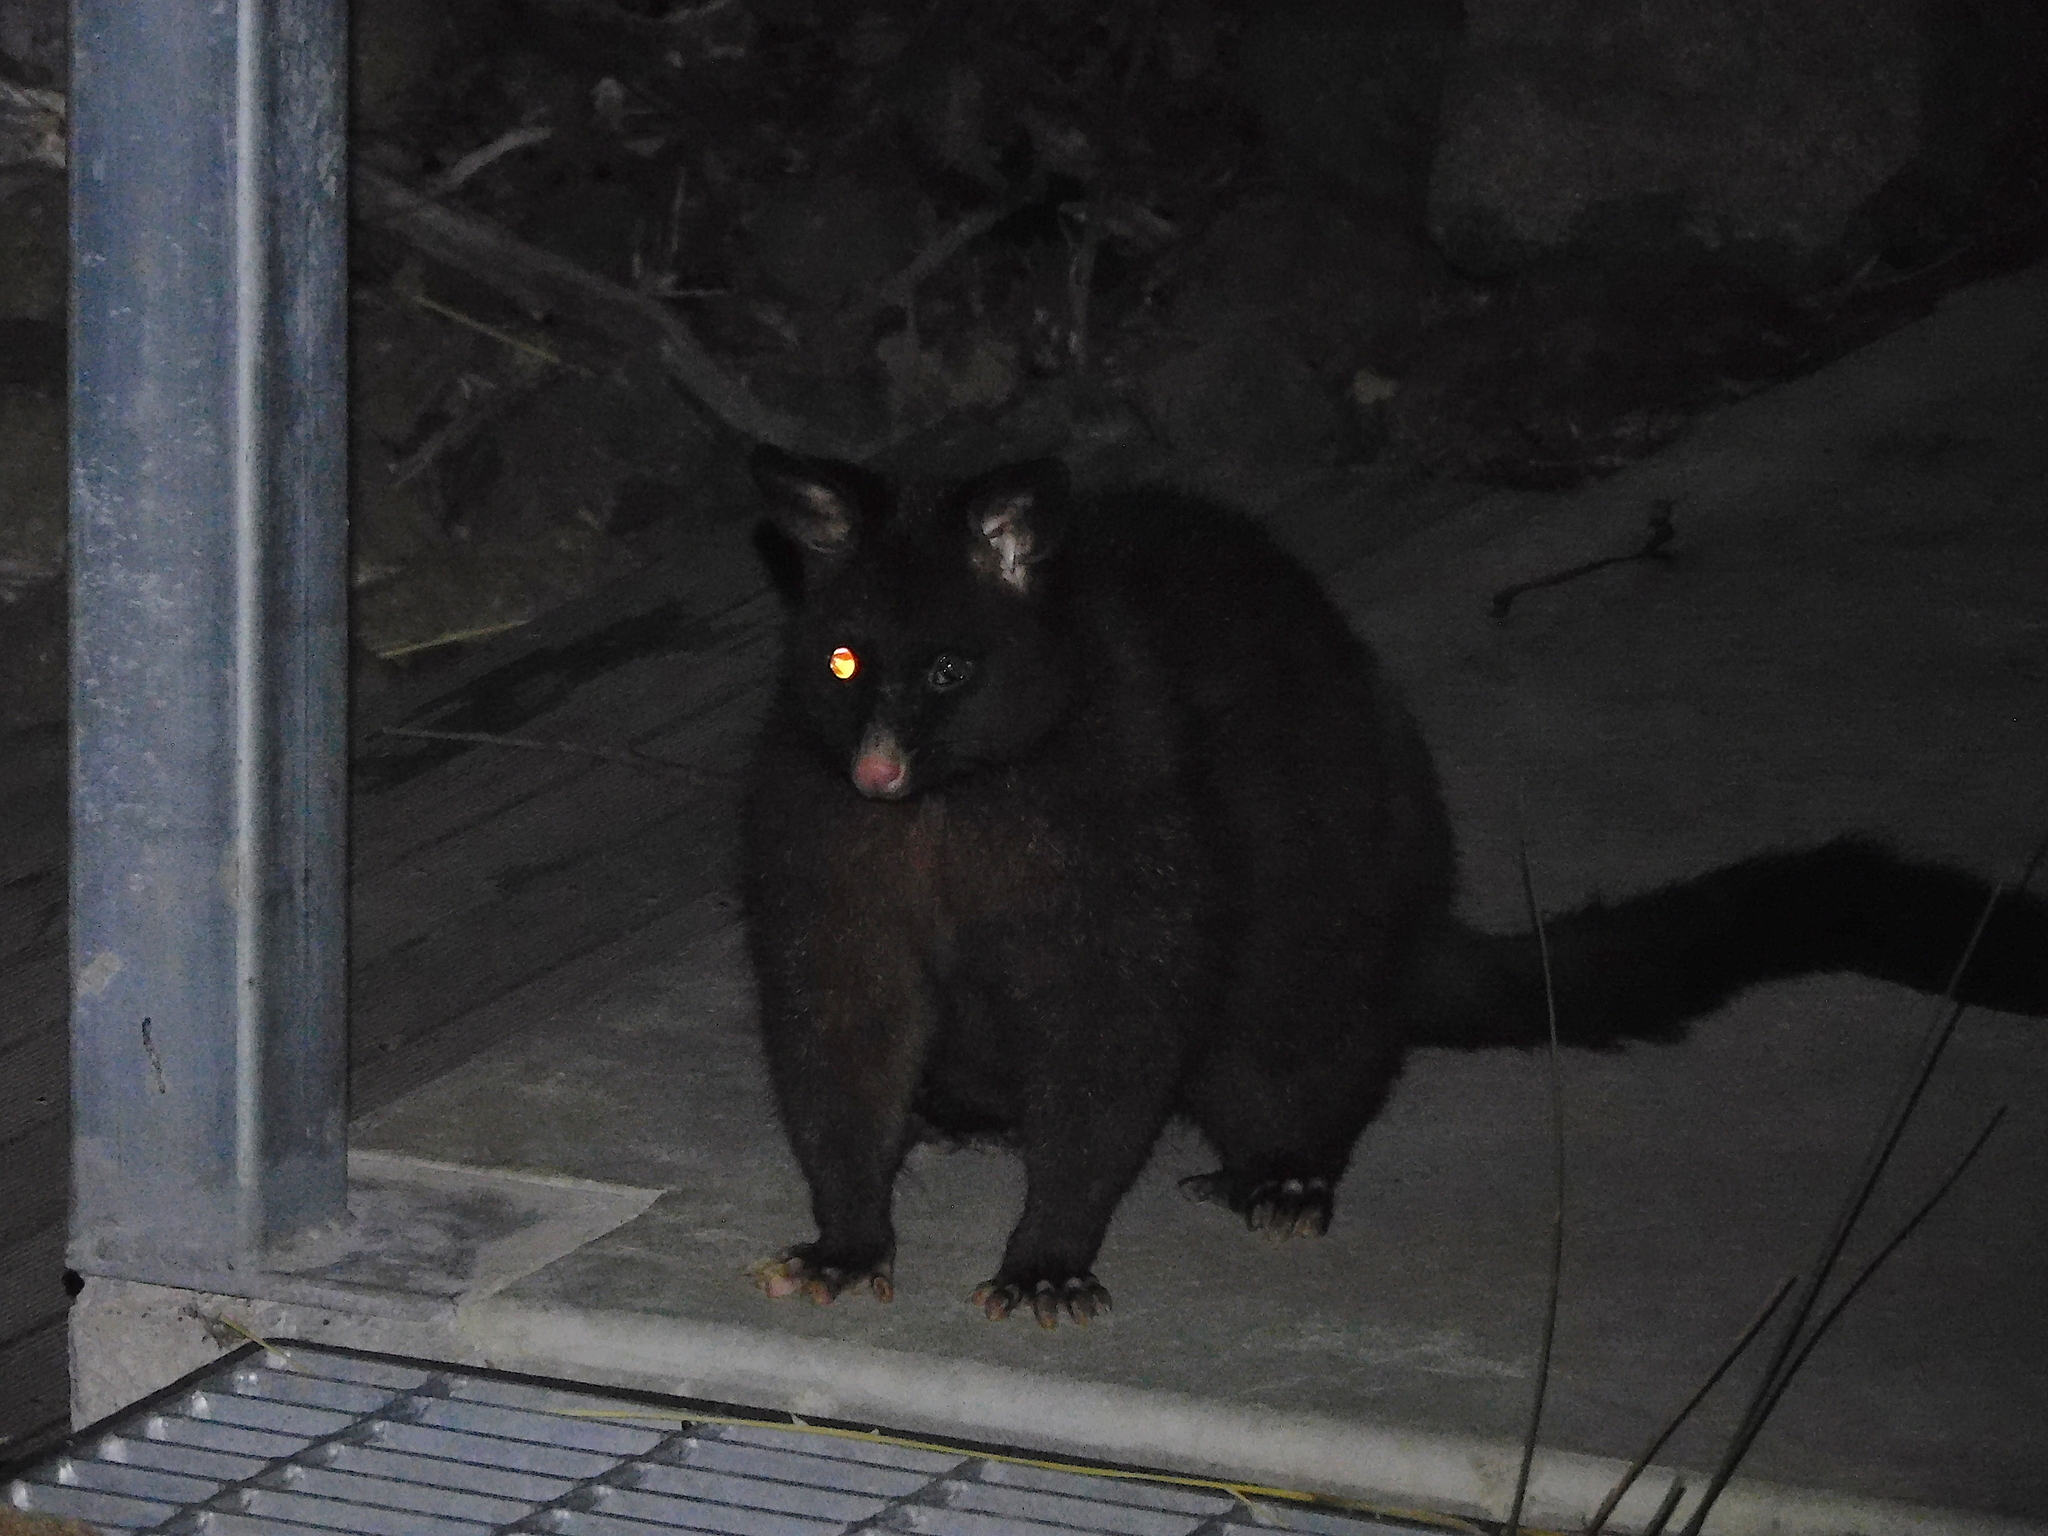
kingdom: Animalia
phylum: Chordata
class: Mammalia
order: Diprotodontia
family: Phalangeridae
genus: Trichosurus
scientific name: Trichosurus vulpecula
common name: Common brushtail
